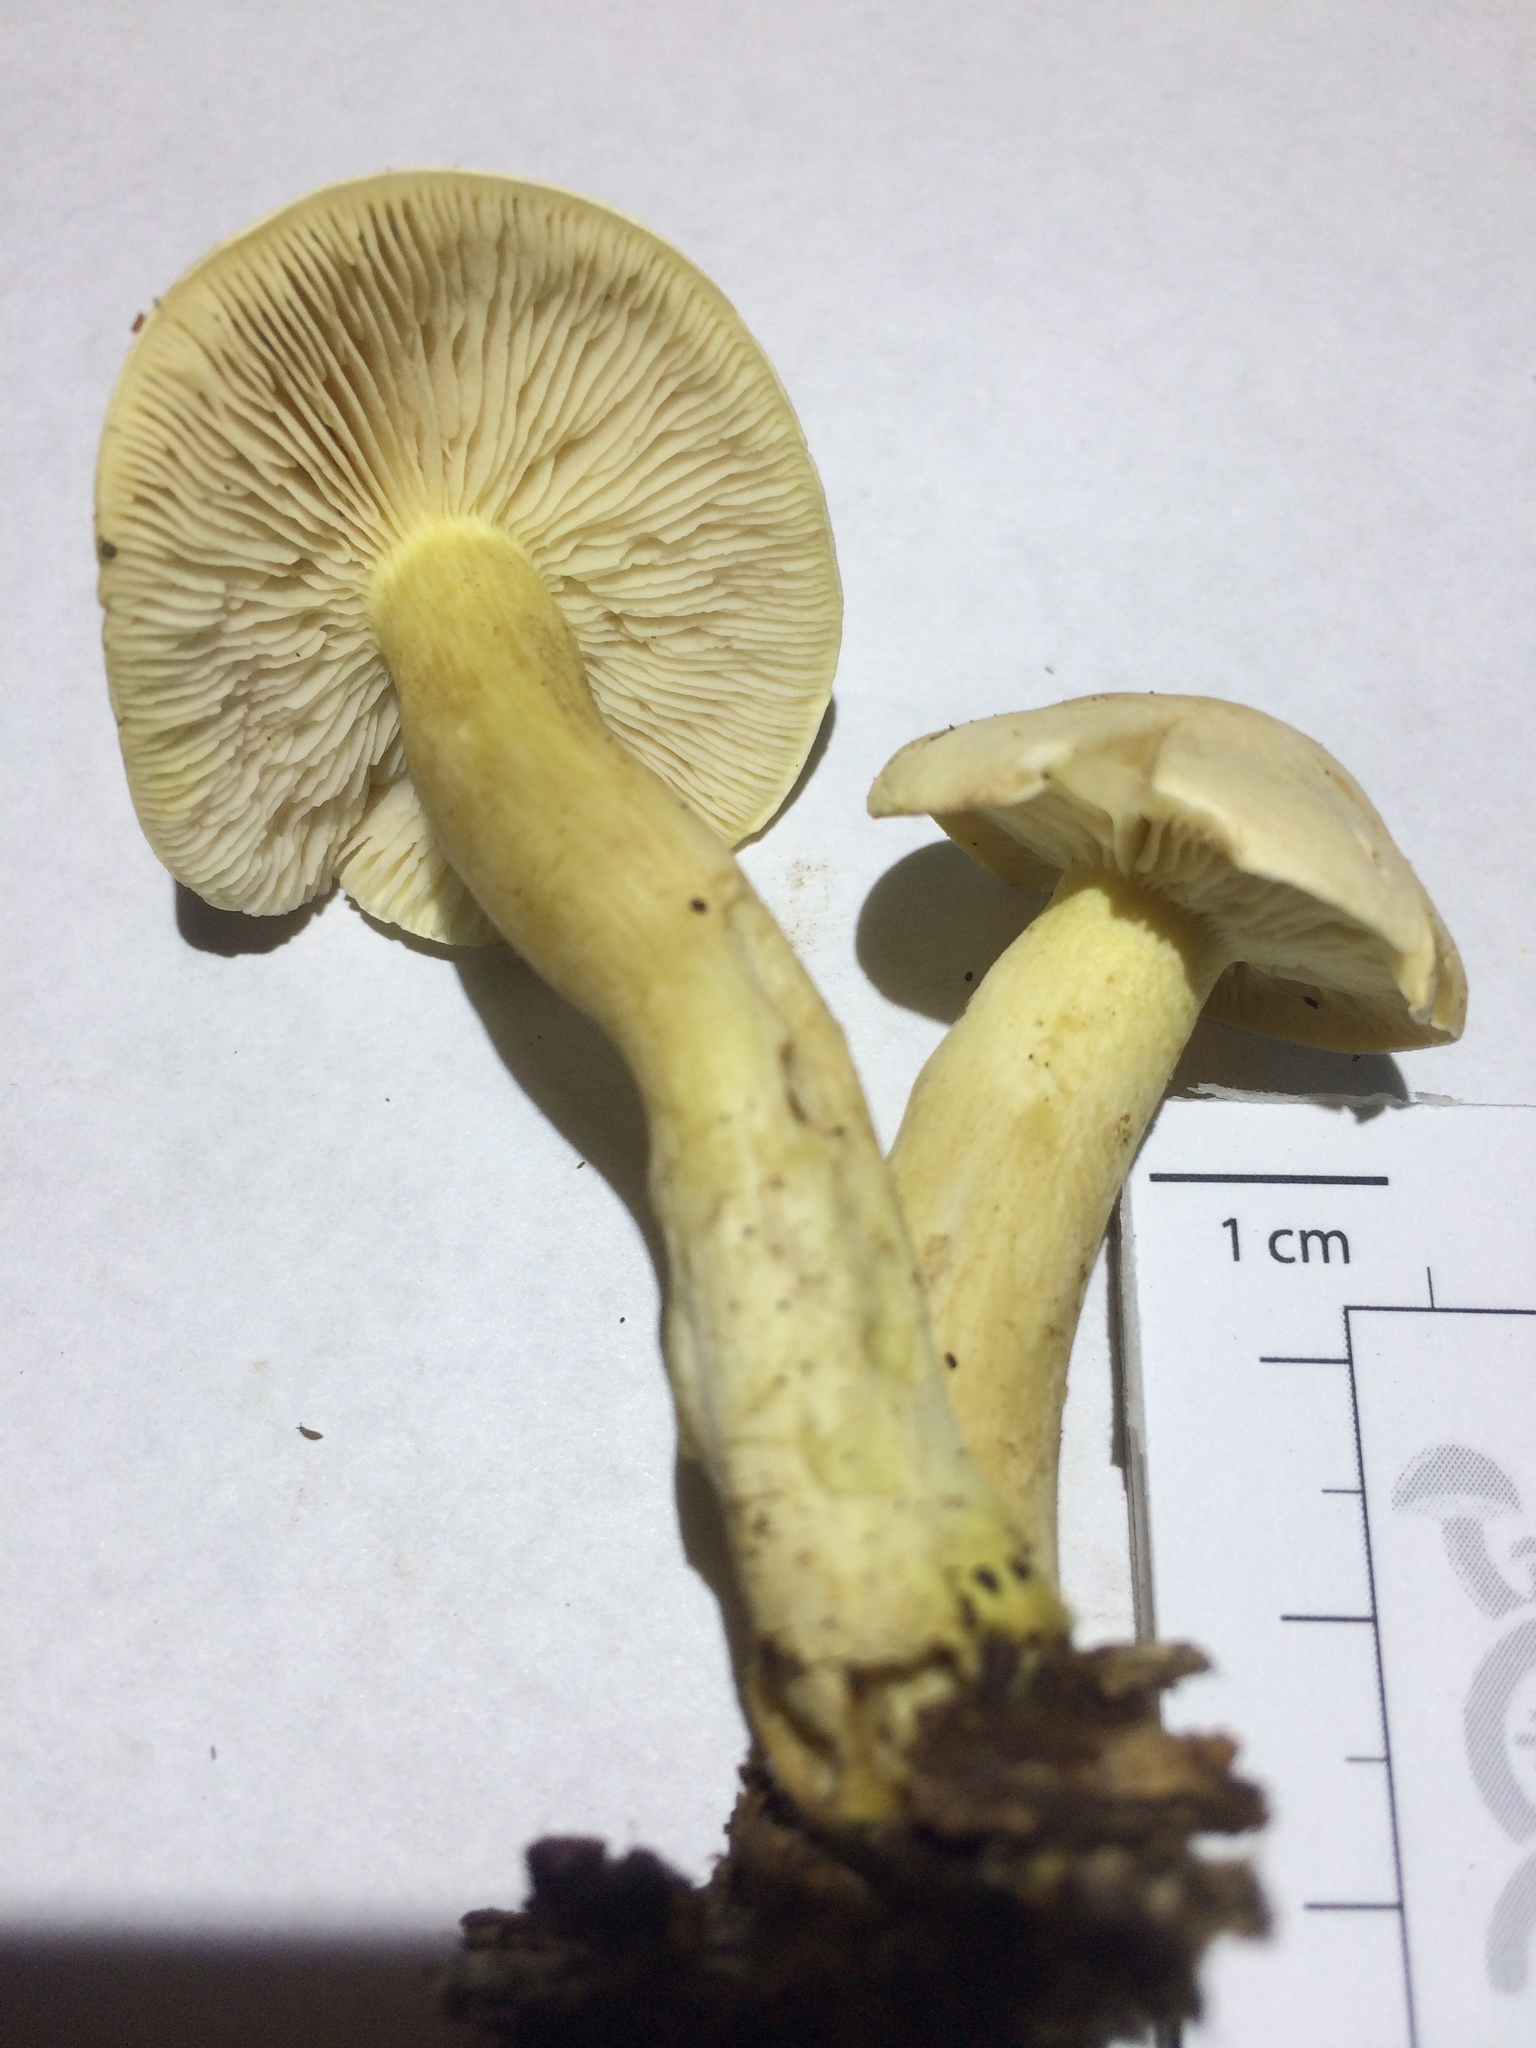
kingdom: Fungi
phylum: Basidiomycota
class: Agaricomycetes
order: Agaricales
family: Tricholomataceae
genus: Tricholoma
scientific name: Tricholoma odorum
